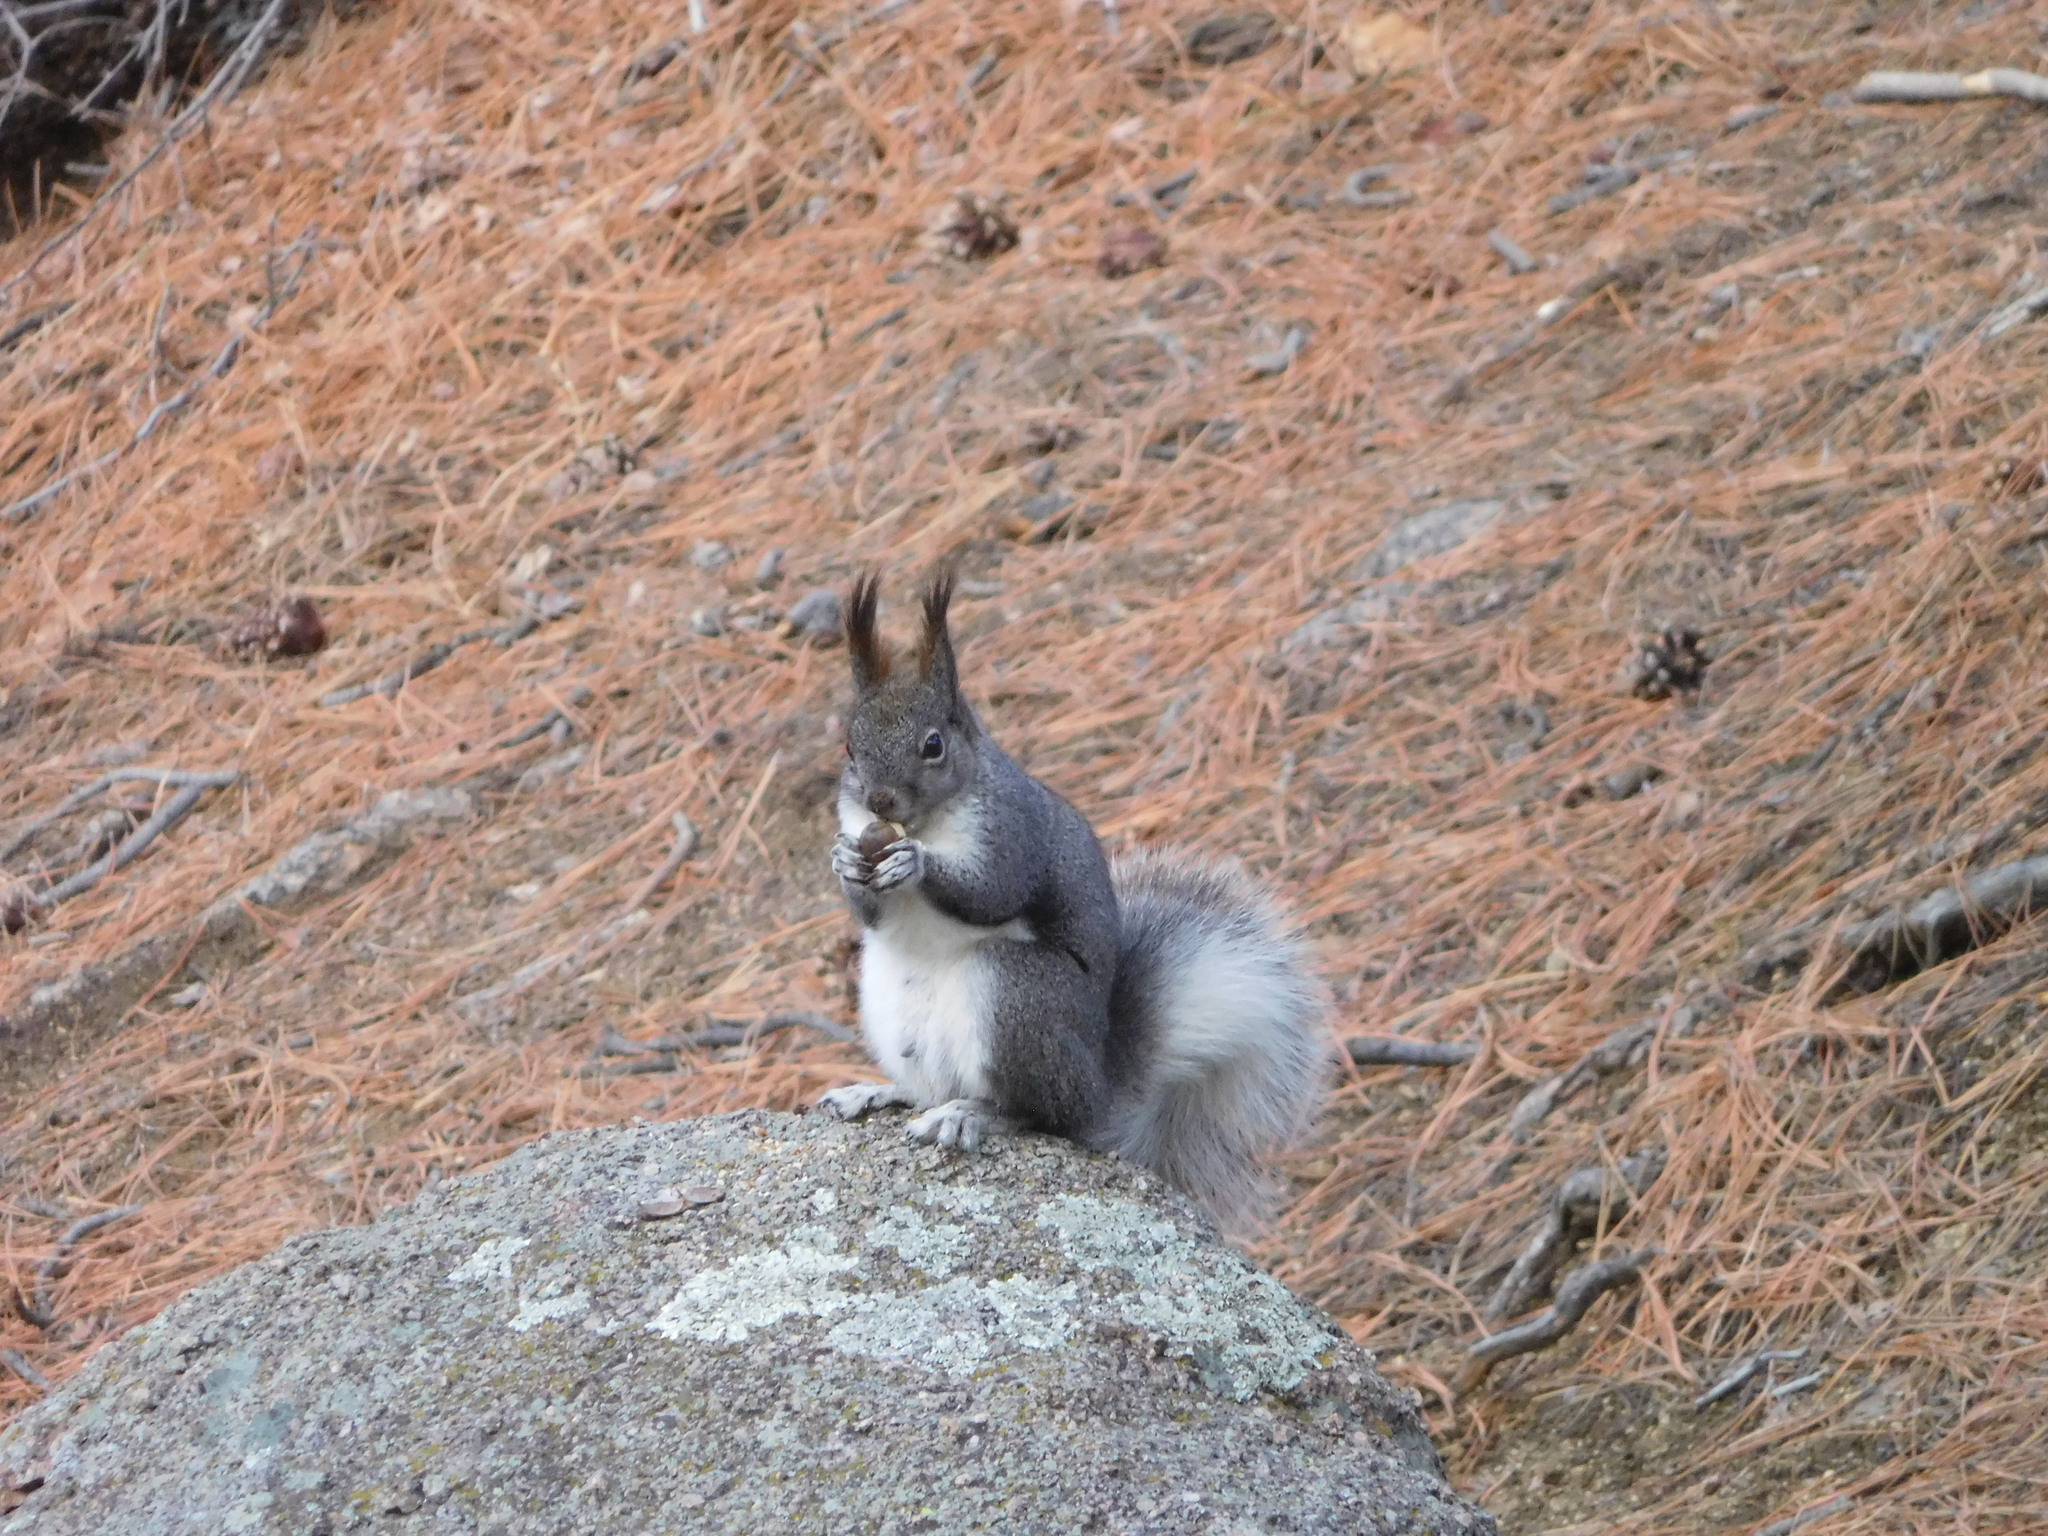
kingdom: Animalia
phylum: Chordata
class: Mammalia
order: Rodentia
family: Sciuridae
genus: Sciurus
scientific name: Sciurus aberti
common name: Abert's squirrel
